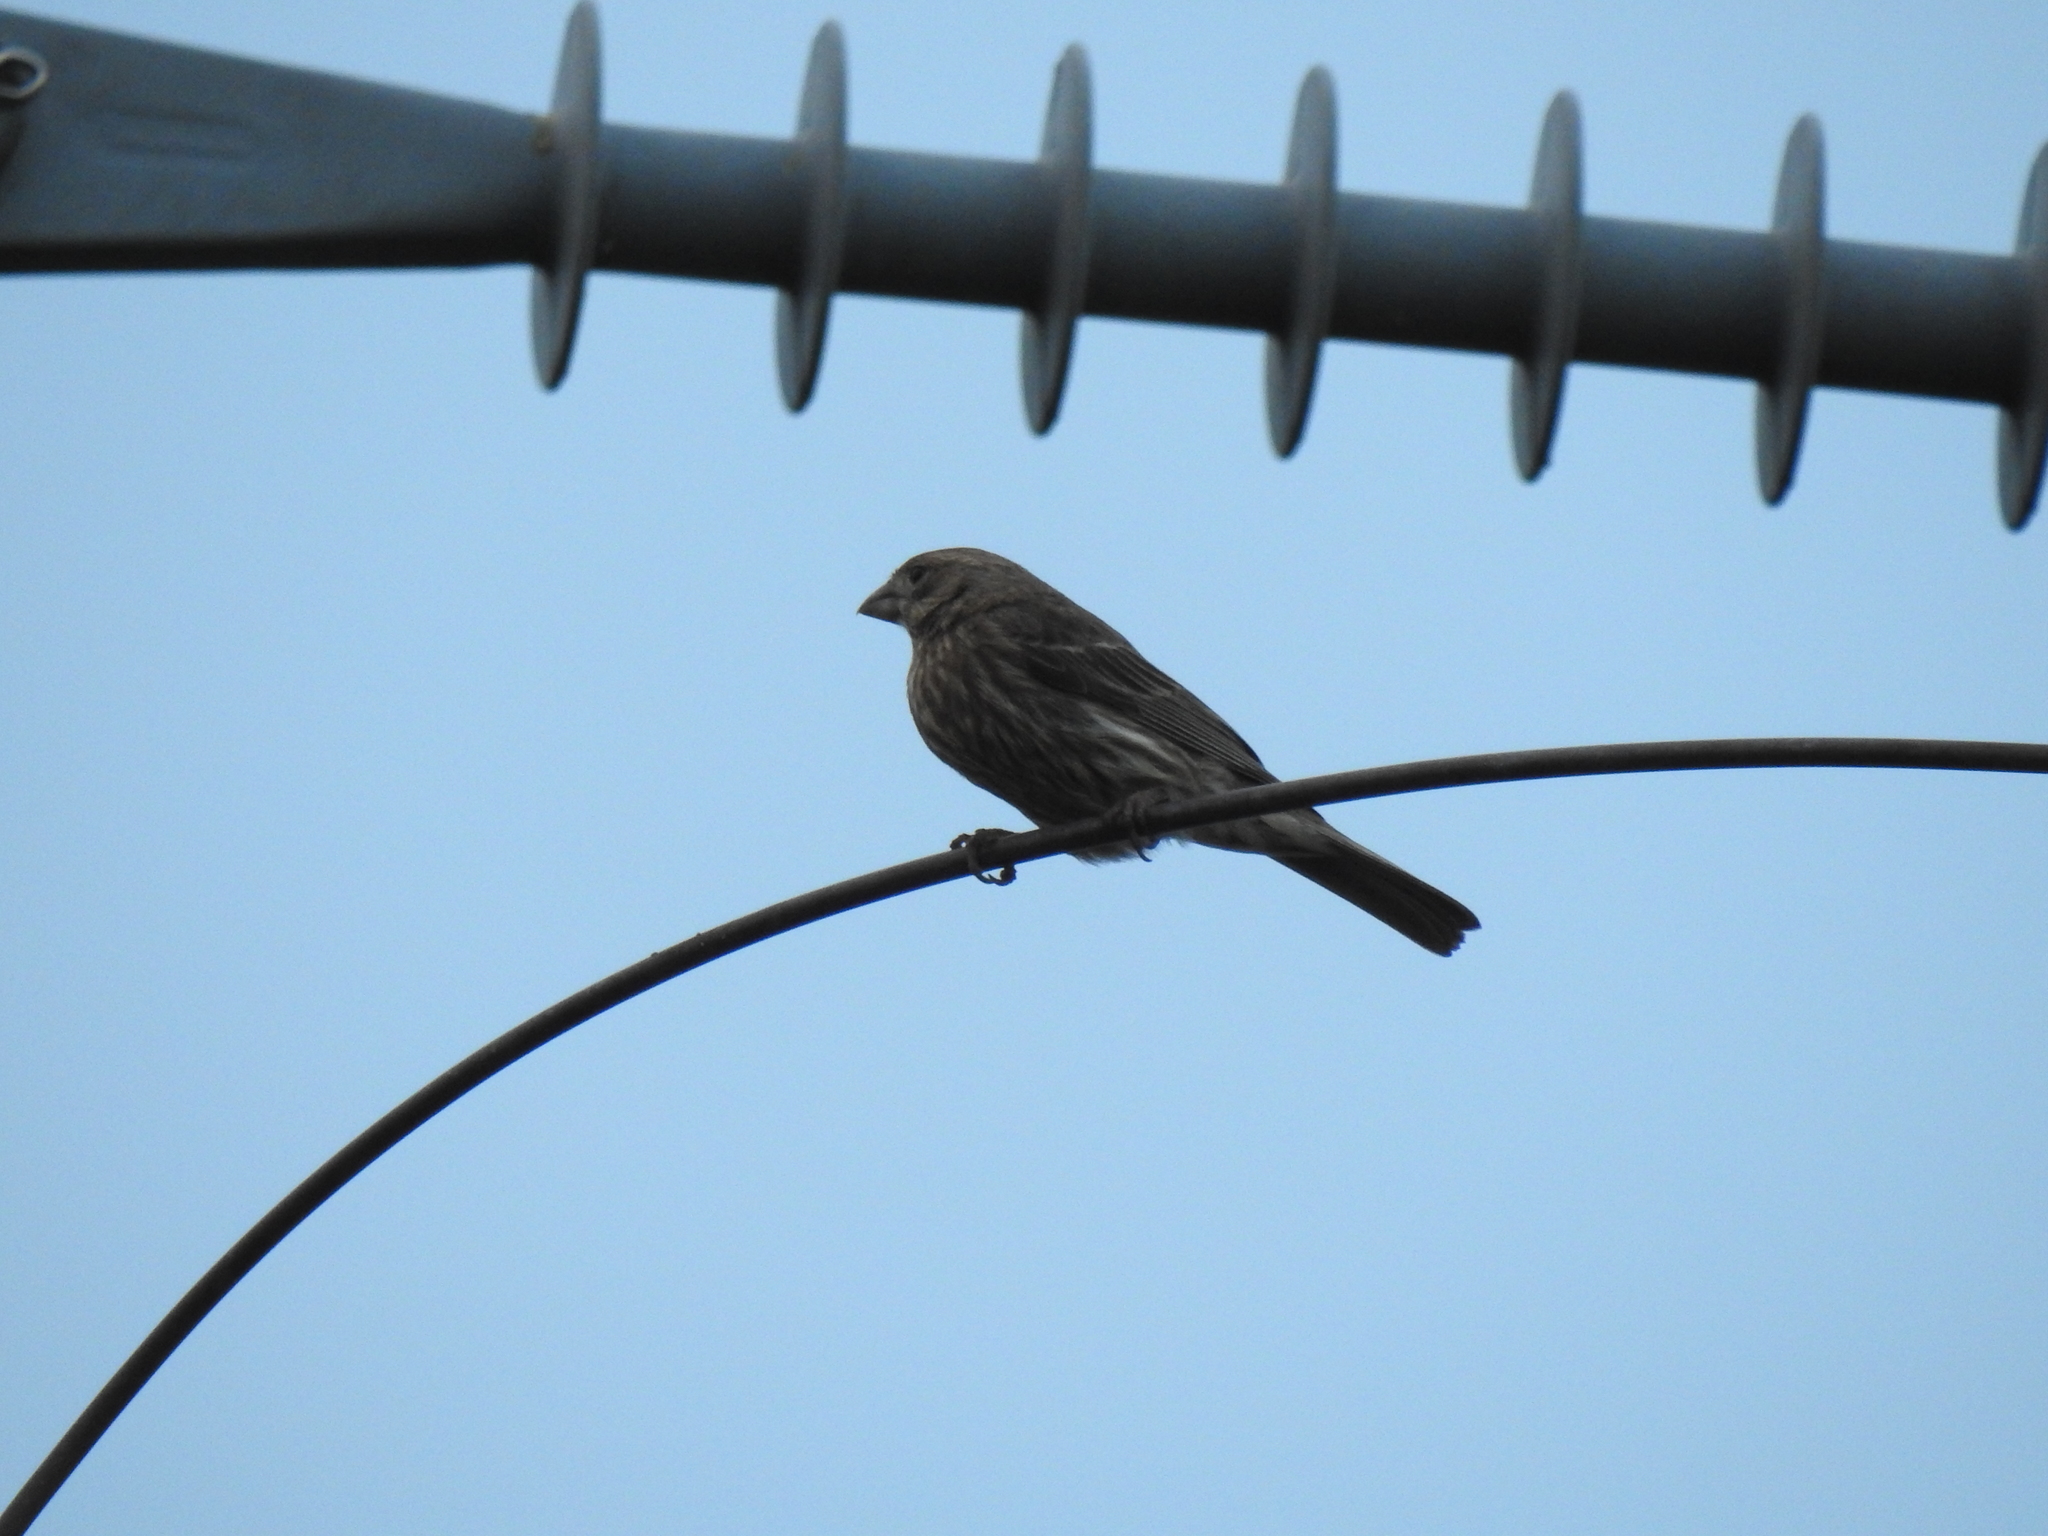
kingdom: Animalia
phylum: Chordata
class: Aves
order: Passeriformes
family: Fringillidae
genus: Haemorhous
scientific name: Haemorhous mexicanus
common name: House finch
